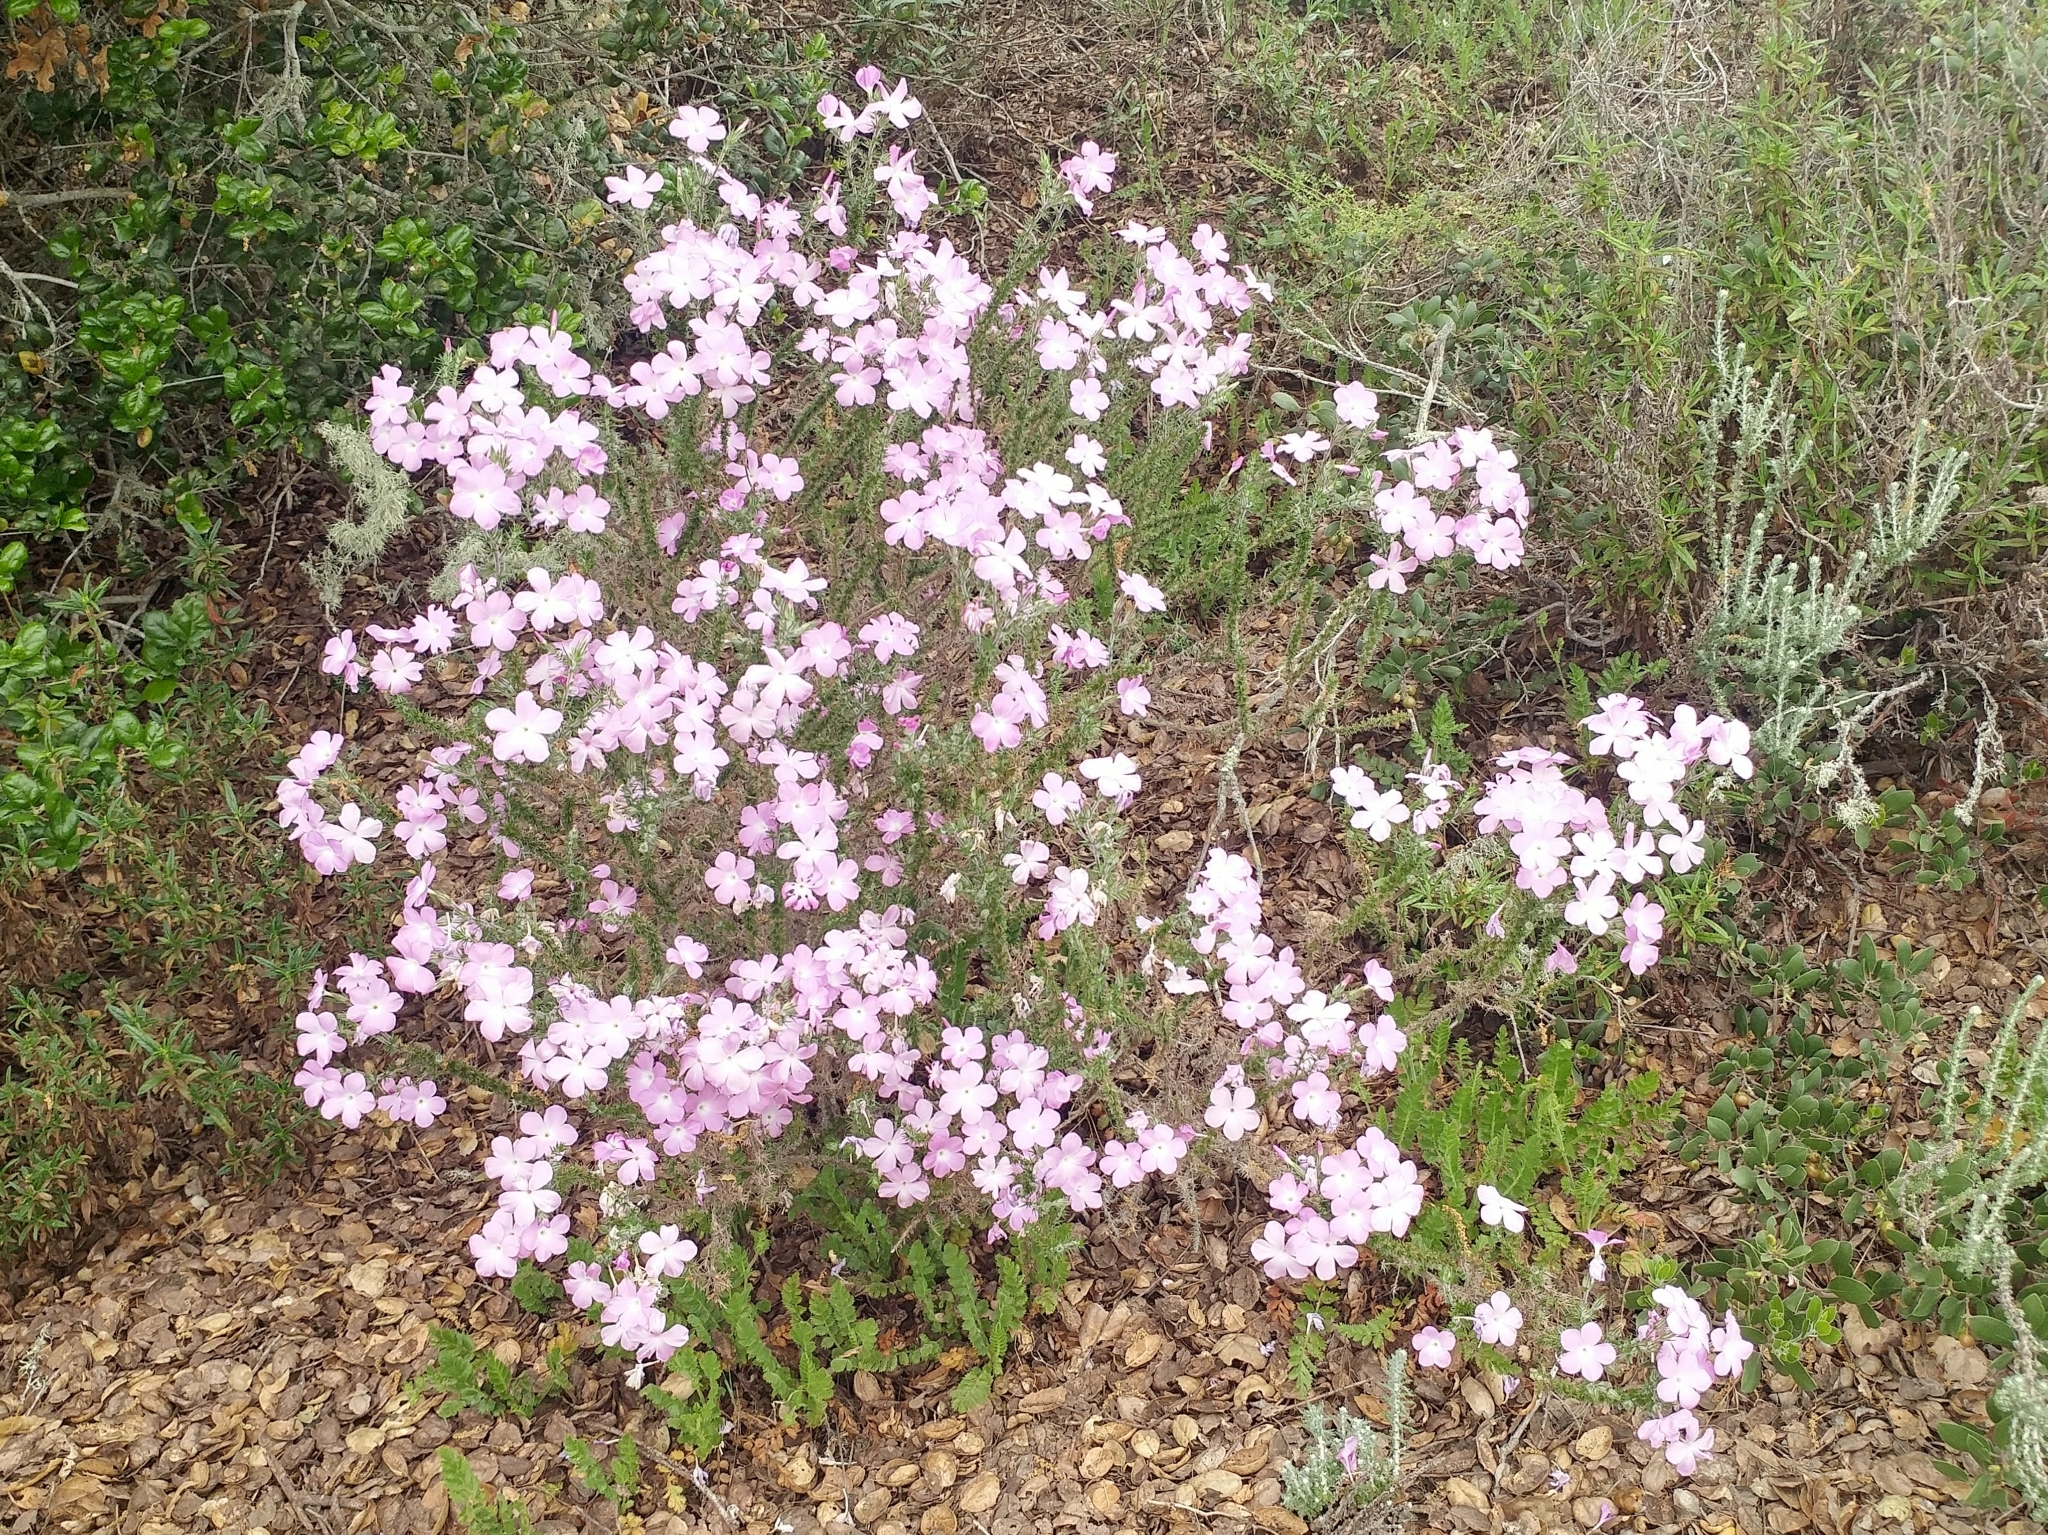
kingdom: Plantae
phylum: Tracheophyta
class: Magnoliopsida
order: Ericales
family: Polemoniaceae
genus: Linanthus
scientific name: Linanthus californicus
